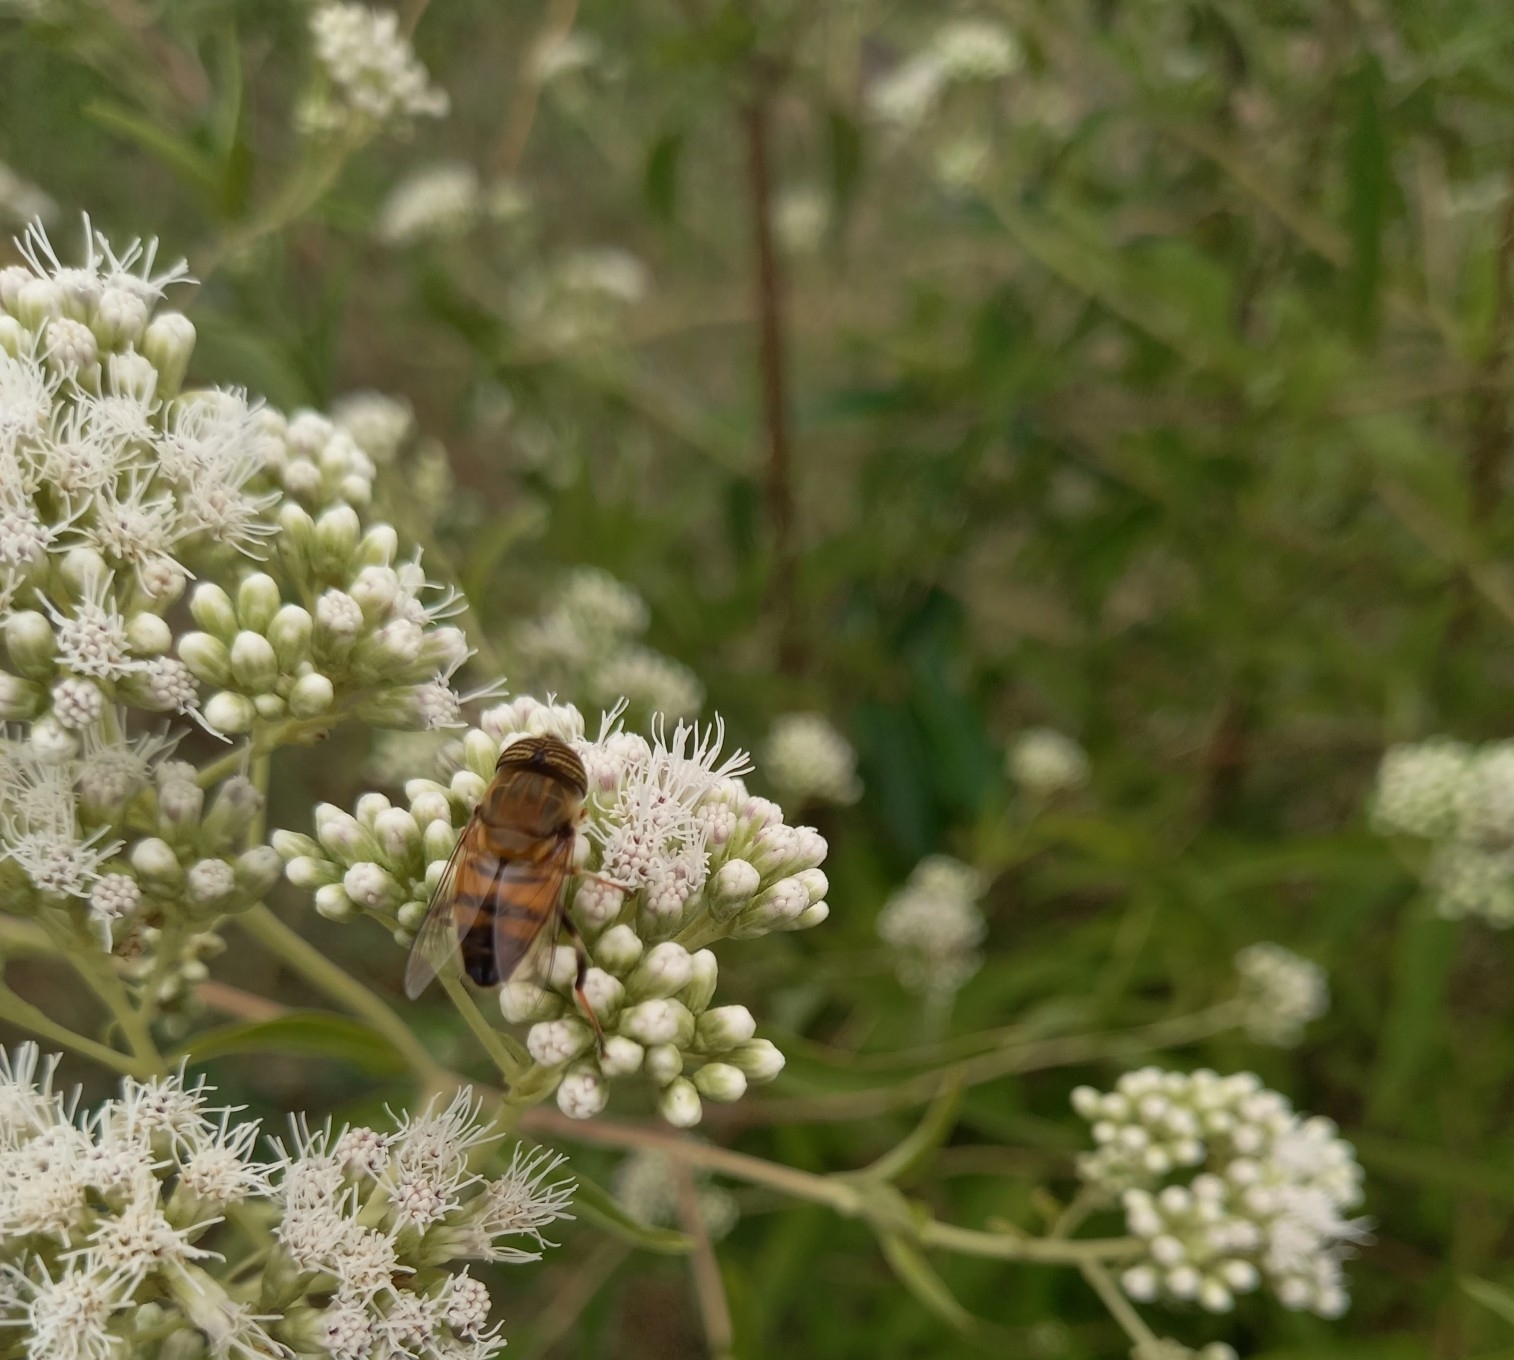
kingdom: Animalia
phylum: Arthropoda
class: Insecta
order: Diptera
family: Syrphidae
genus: Eristalinus
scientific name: Eristalinus taeniops
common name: Syrphid fly
